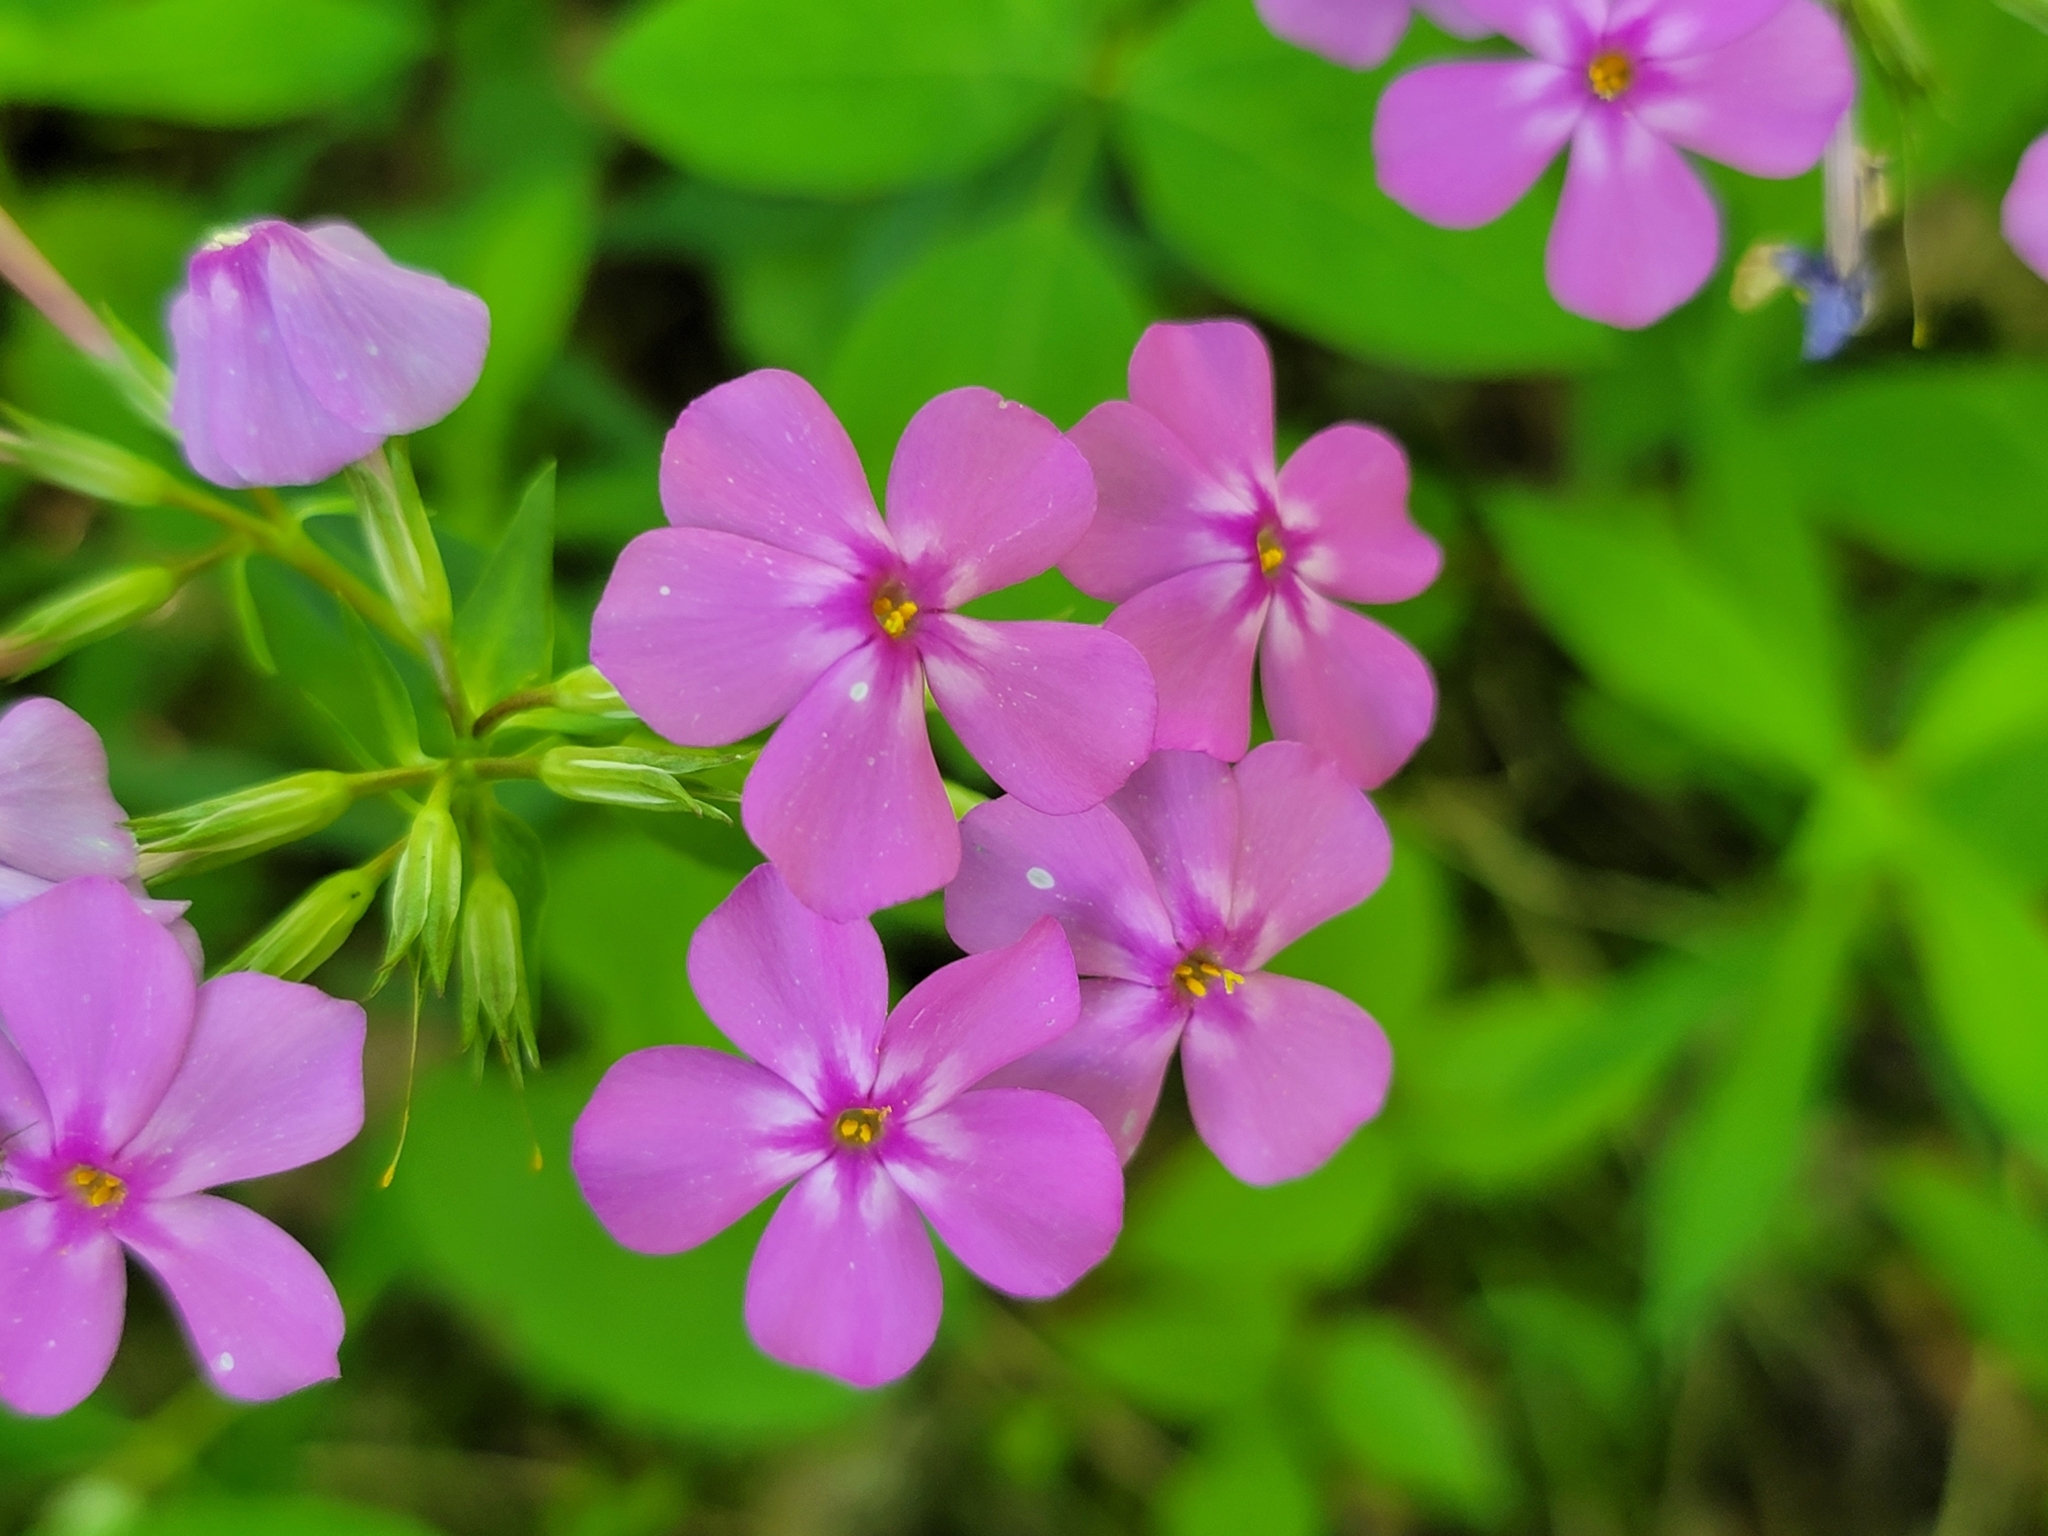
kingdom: Plantae
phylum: Tracheophyta
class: Magnoliopsida
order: Ericales
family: Polemoniaceae
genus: Phlox
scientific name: Phlox glaberrima
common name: Smooth phlox
